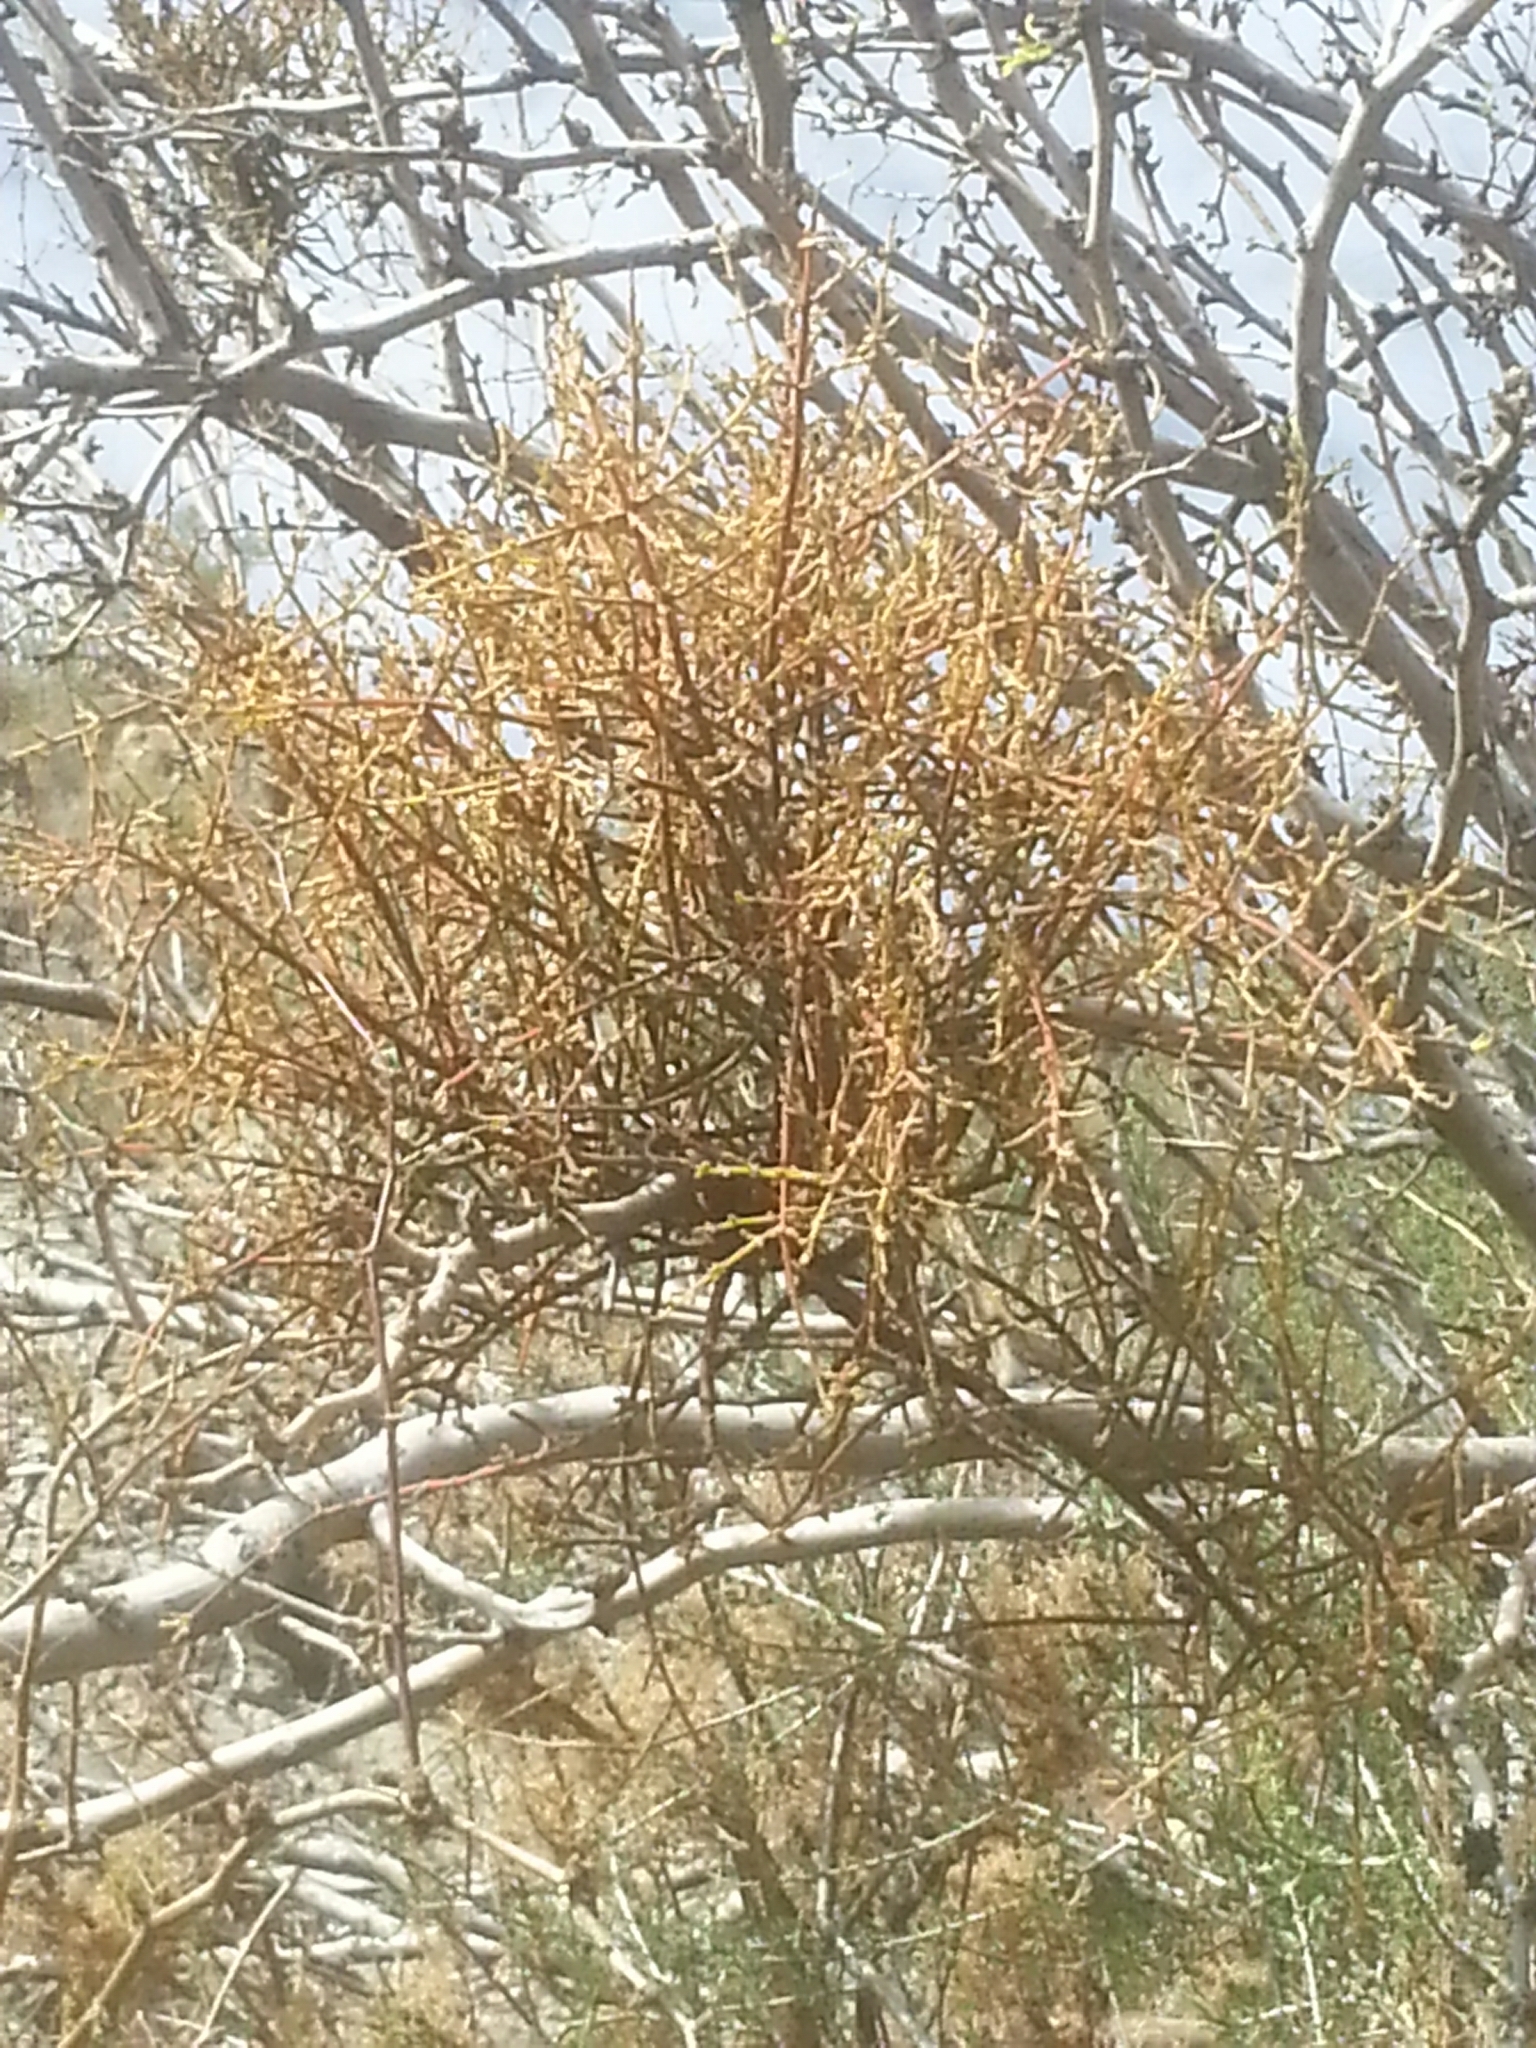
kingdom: Plantae
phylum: Tracheophyta
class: Magnoliopsida
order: Santalales
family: Viscaceae
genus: Phoradendron
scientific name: Phoradendron californicum
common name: Acacia mistletoe
